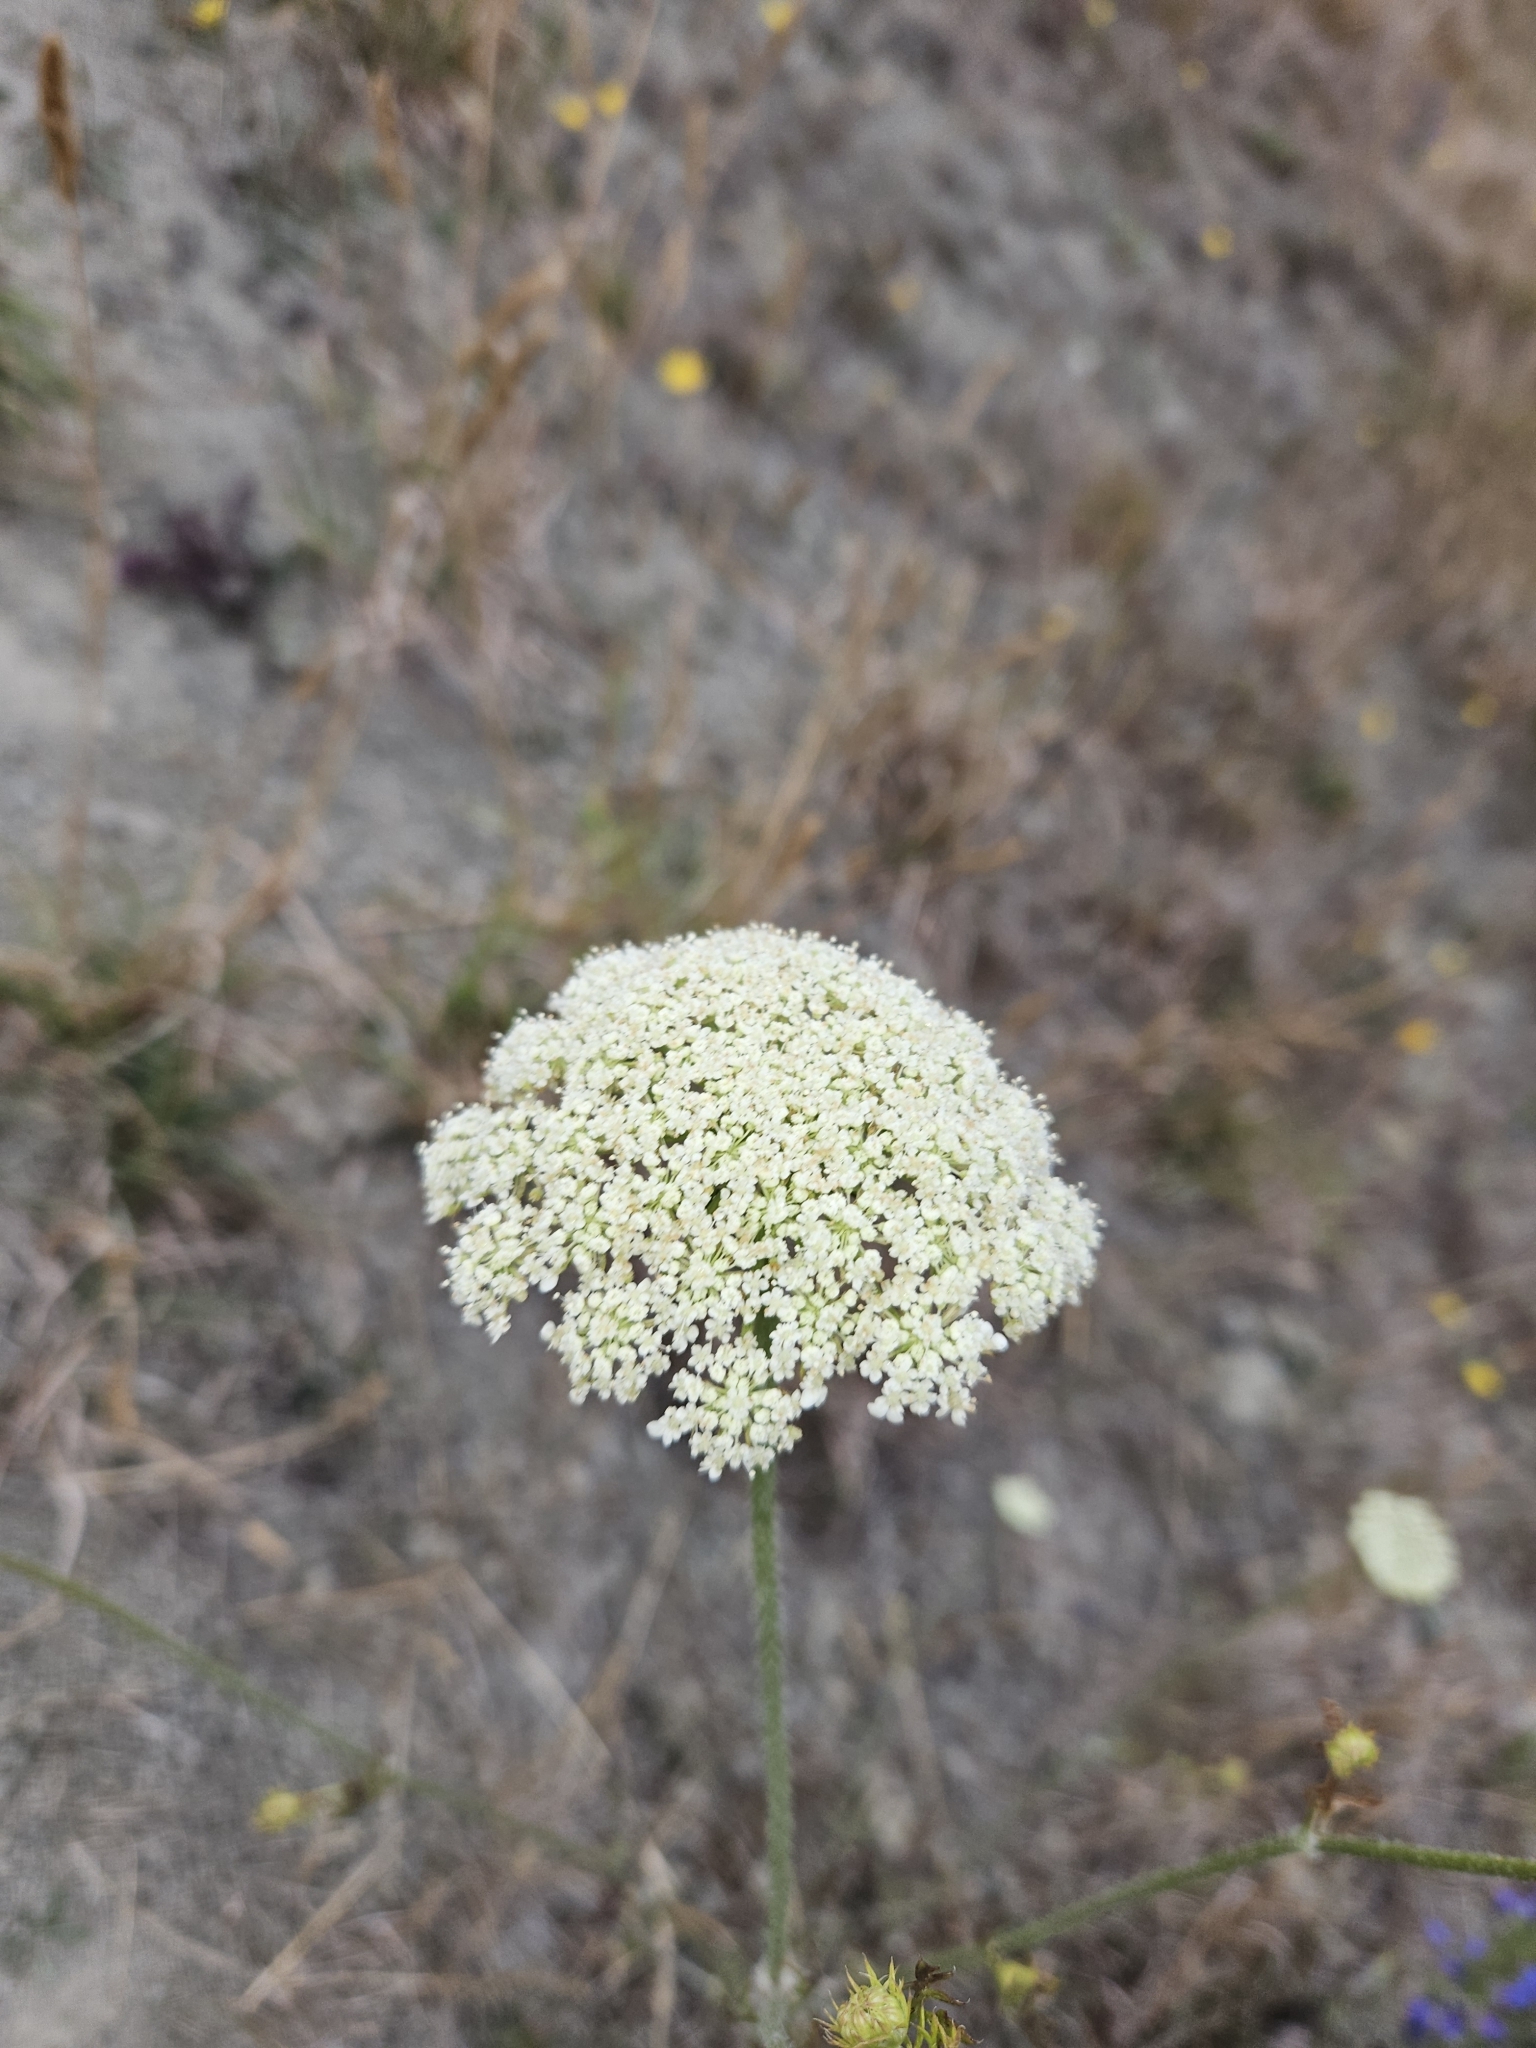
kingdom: Plantae
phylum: Tracheophyta
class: Magnoliopsida
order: Apiales
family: Apiaceae
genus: Daucus
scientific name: Daucus carota
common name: Wild carrot
